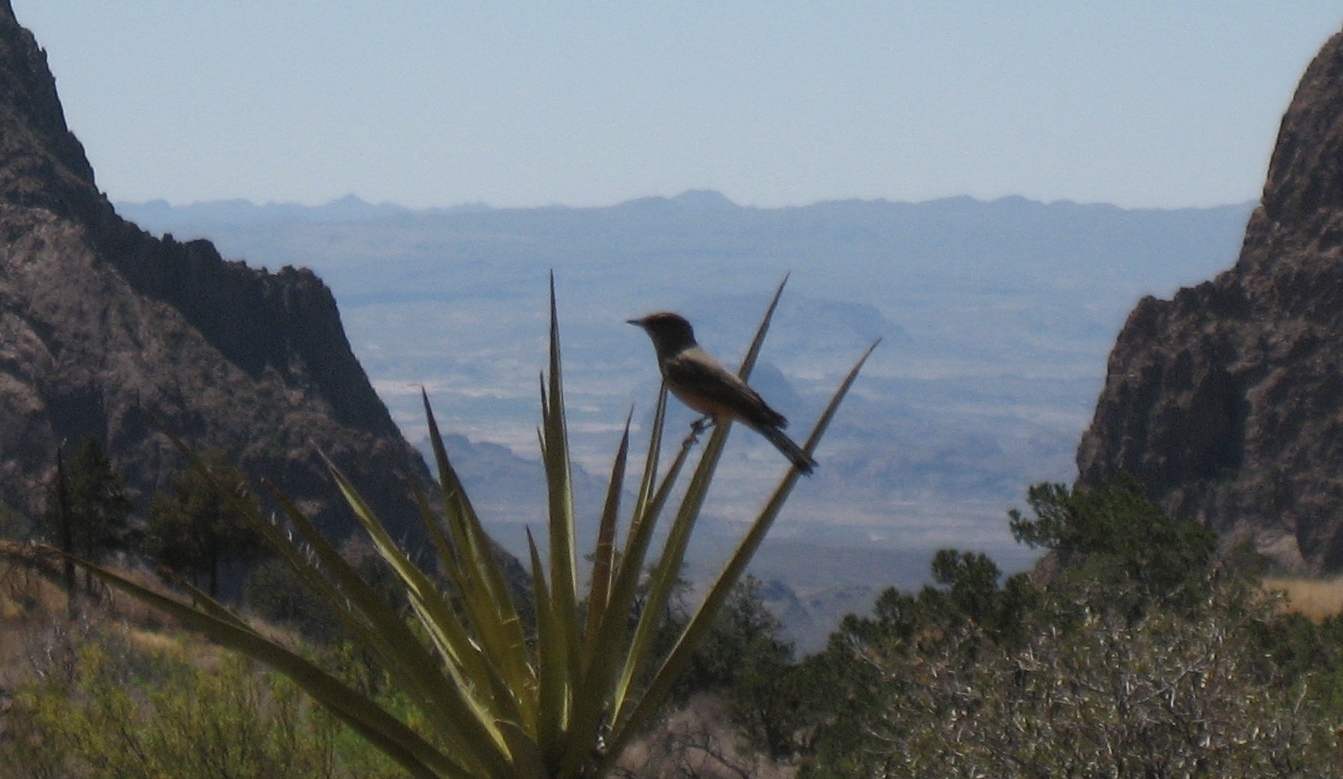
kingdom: Animalia
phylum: Chordata
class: Aves
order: Passeriformes
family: Tyrannidae
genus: Sayornis
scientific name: Sayornis saya
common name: Say's phoebe
